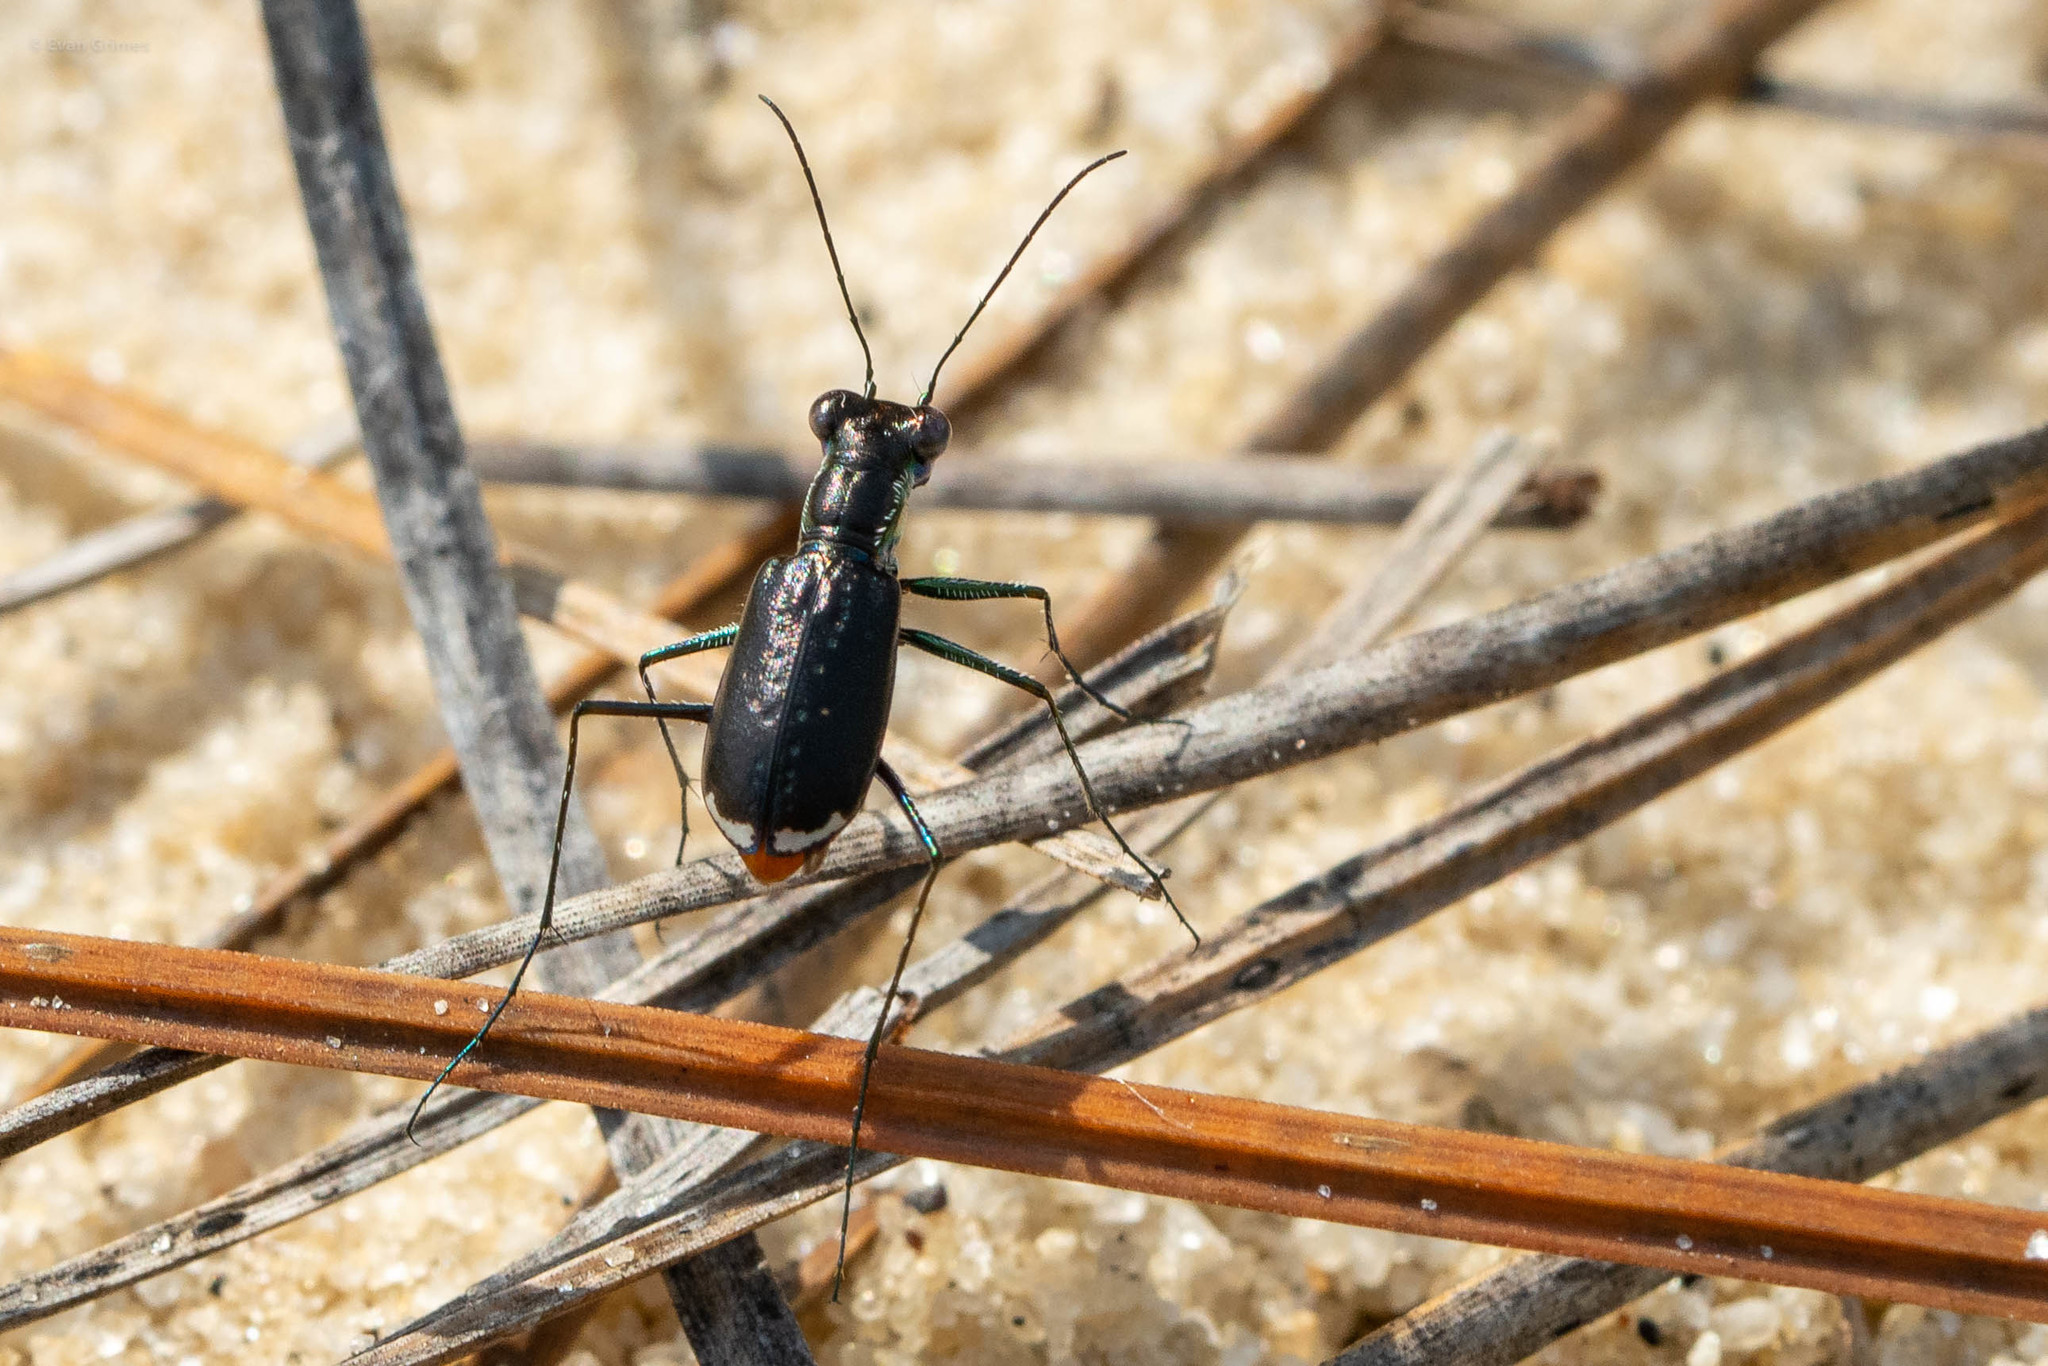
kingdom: Animalia
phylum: Arthropoda
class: Insecta
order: Coleoptera
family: Carabidae
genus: Cicindela
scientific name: Cicindela abdominalis
